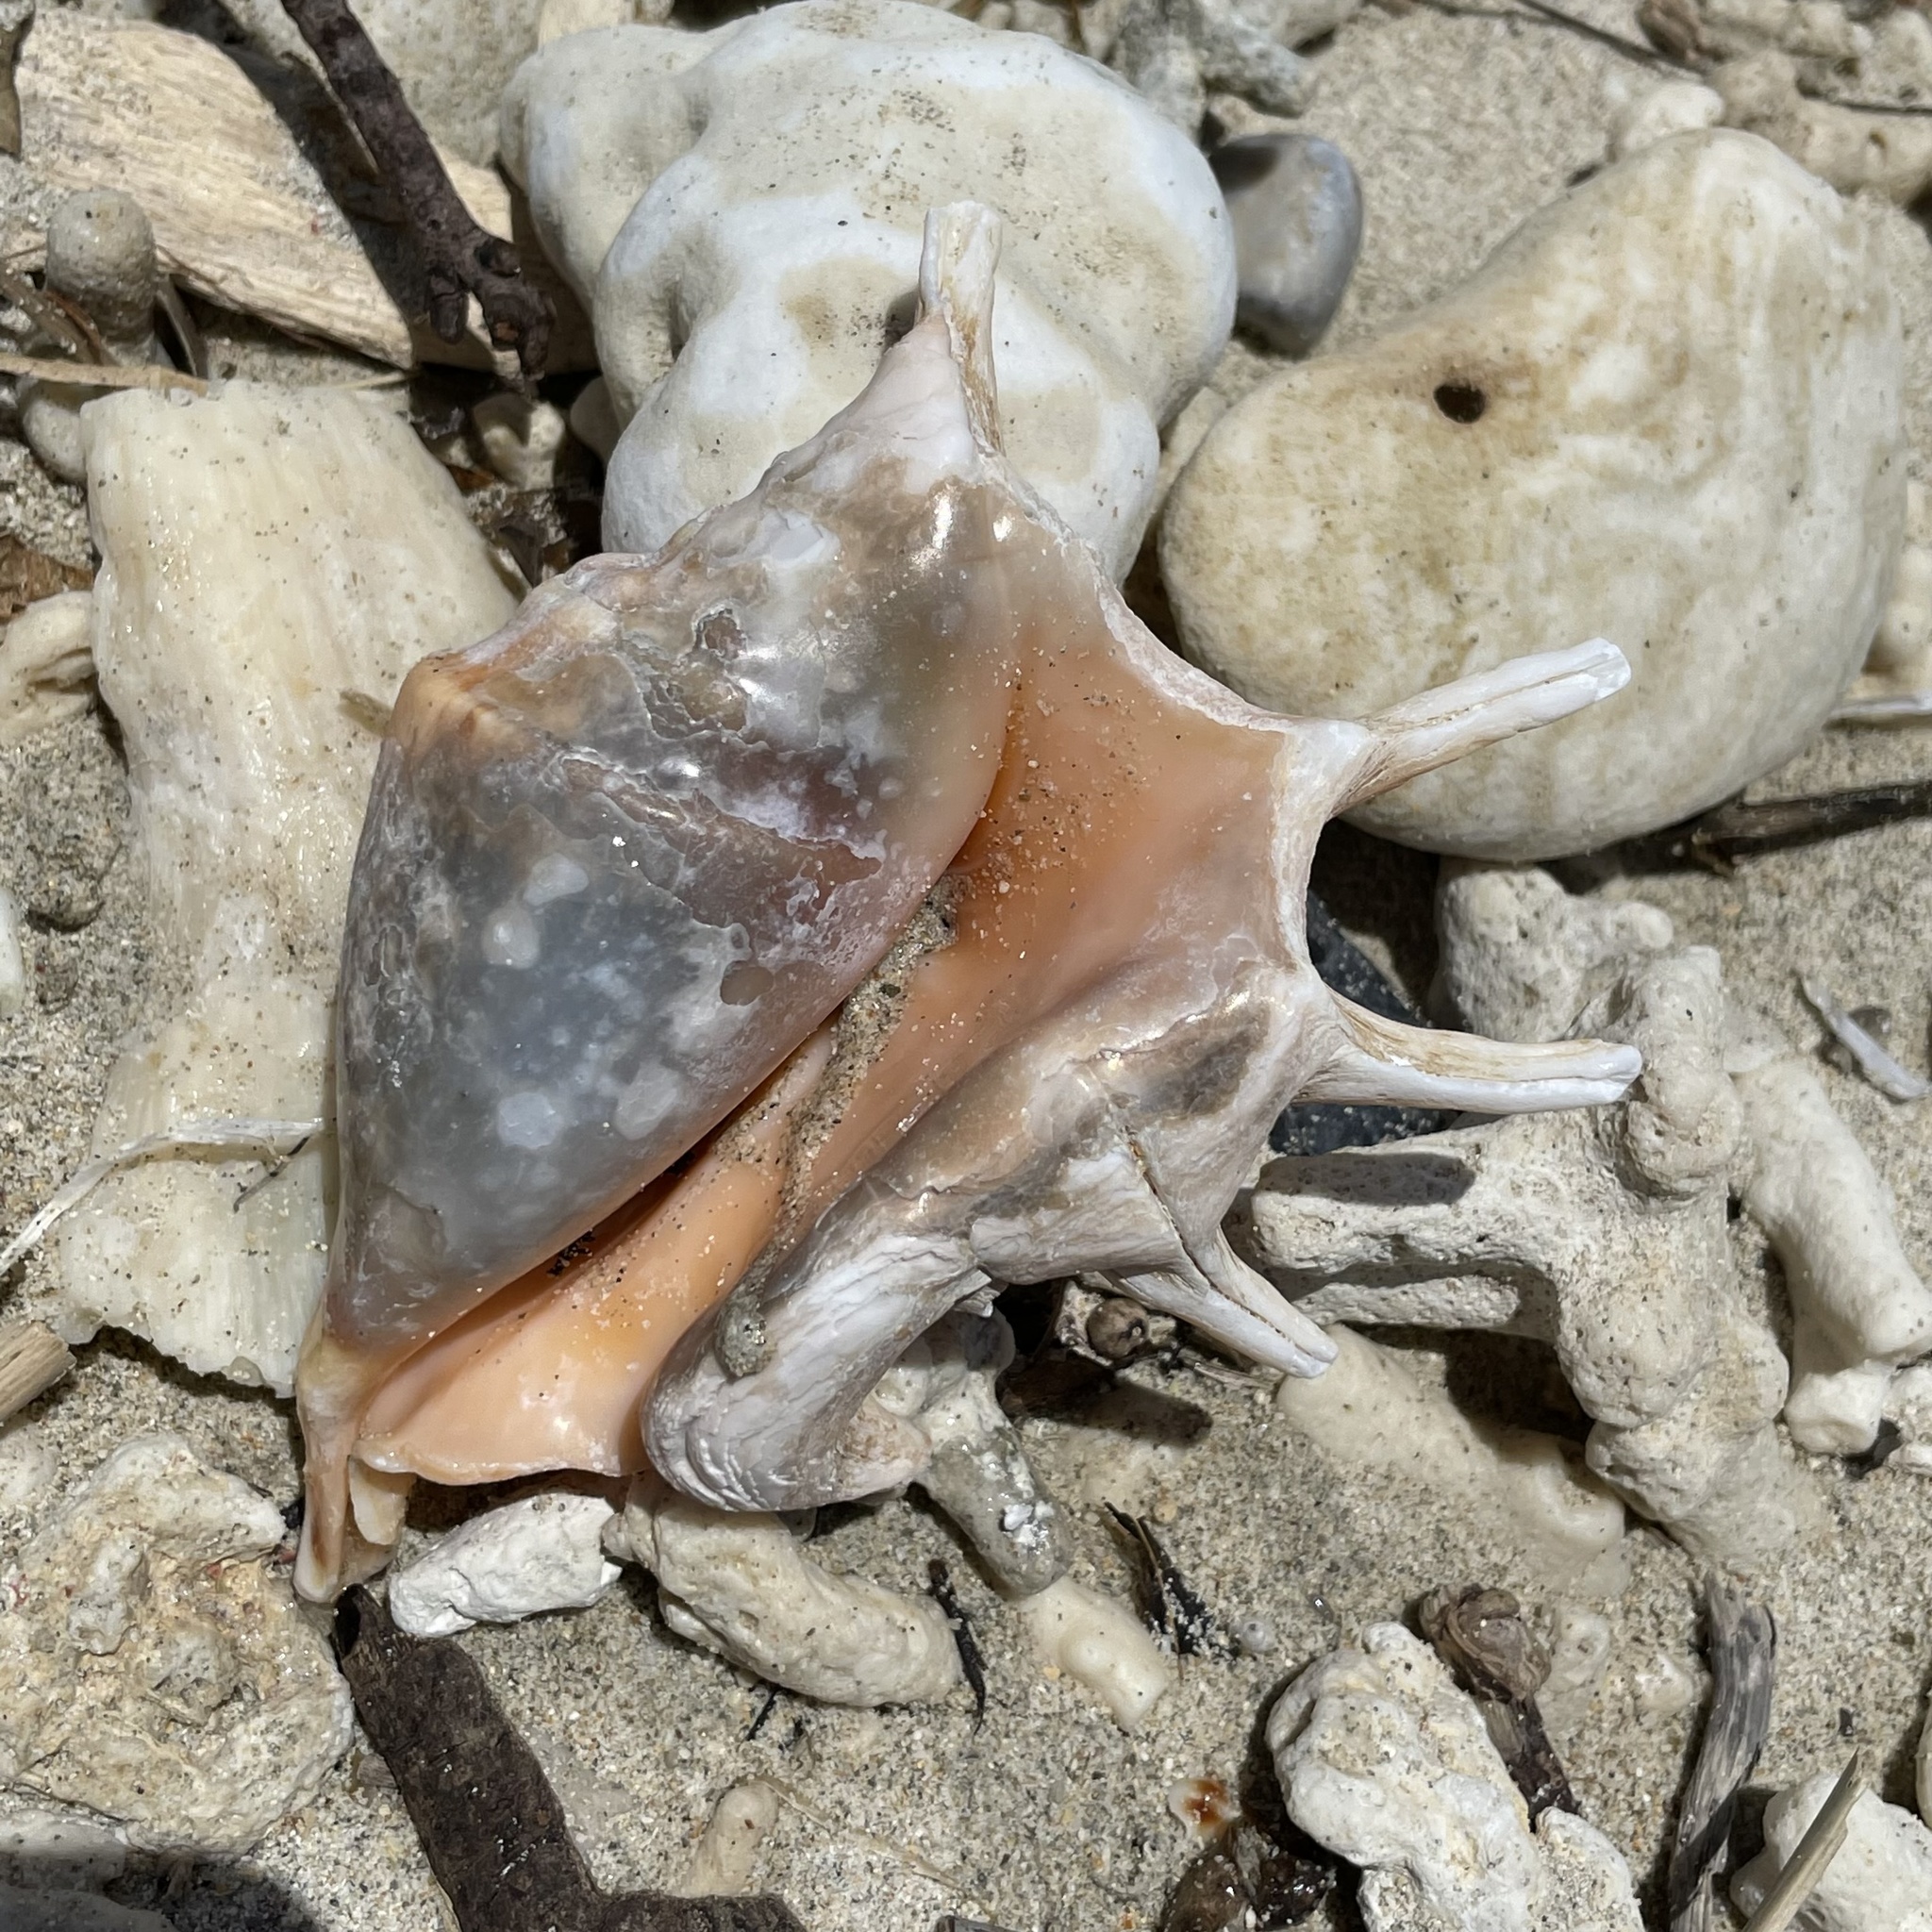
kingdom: Animalia
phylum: Mollusca
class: Gastropoda
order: Littorinimorpha
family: Strombidae
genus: Lambis
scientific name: Lambis lambis
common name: Common spider conch
